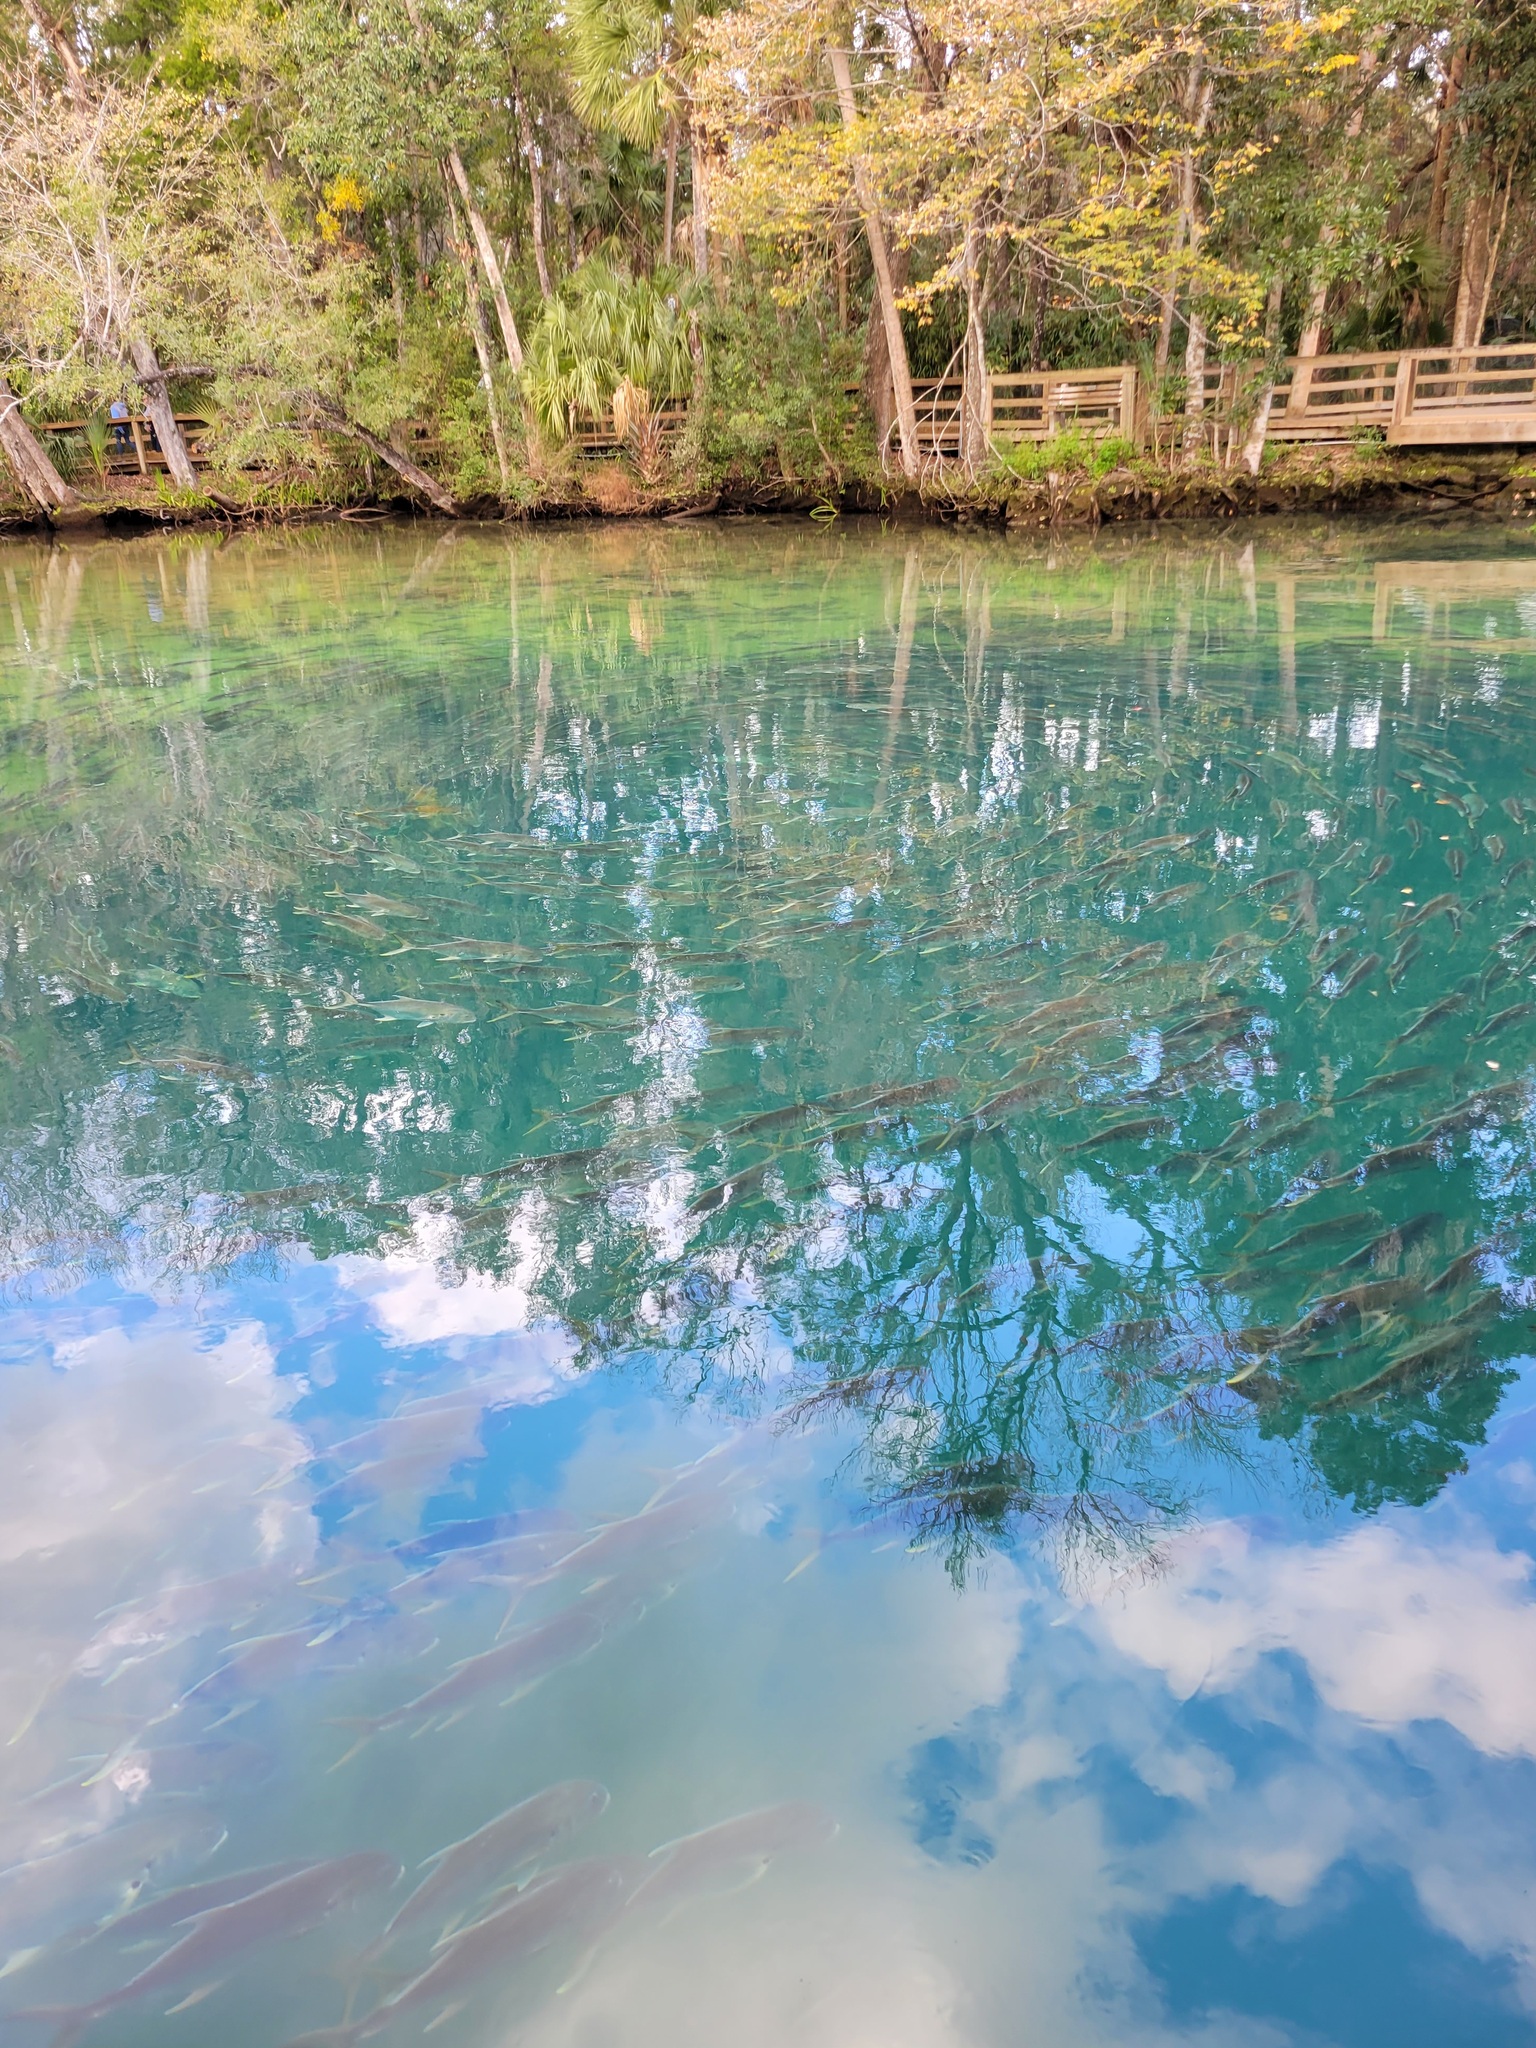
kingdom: Animalia
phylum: Chordata
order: Perciformes
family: Carangidae
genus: Caranx
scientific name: Caranx hippos
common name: Common jack
